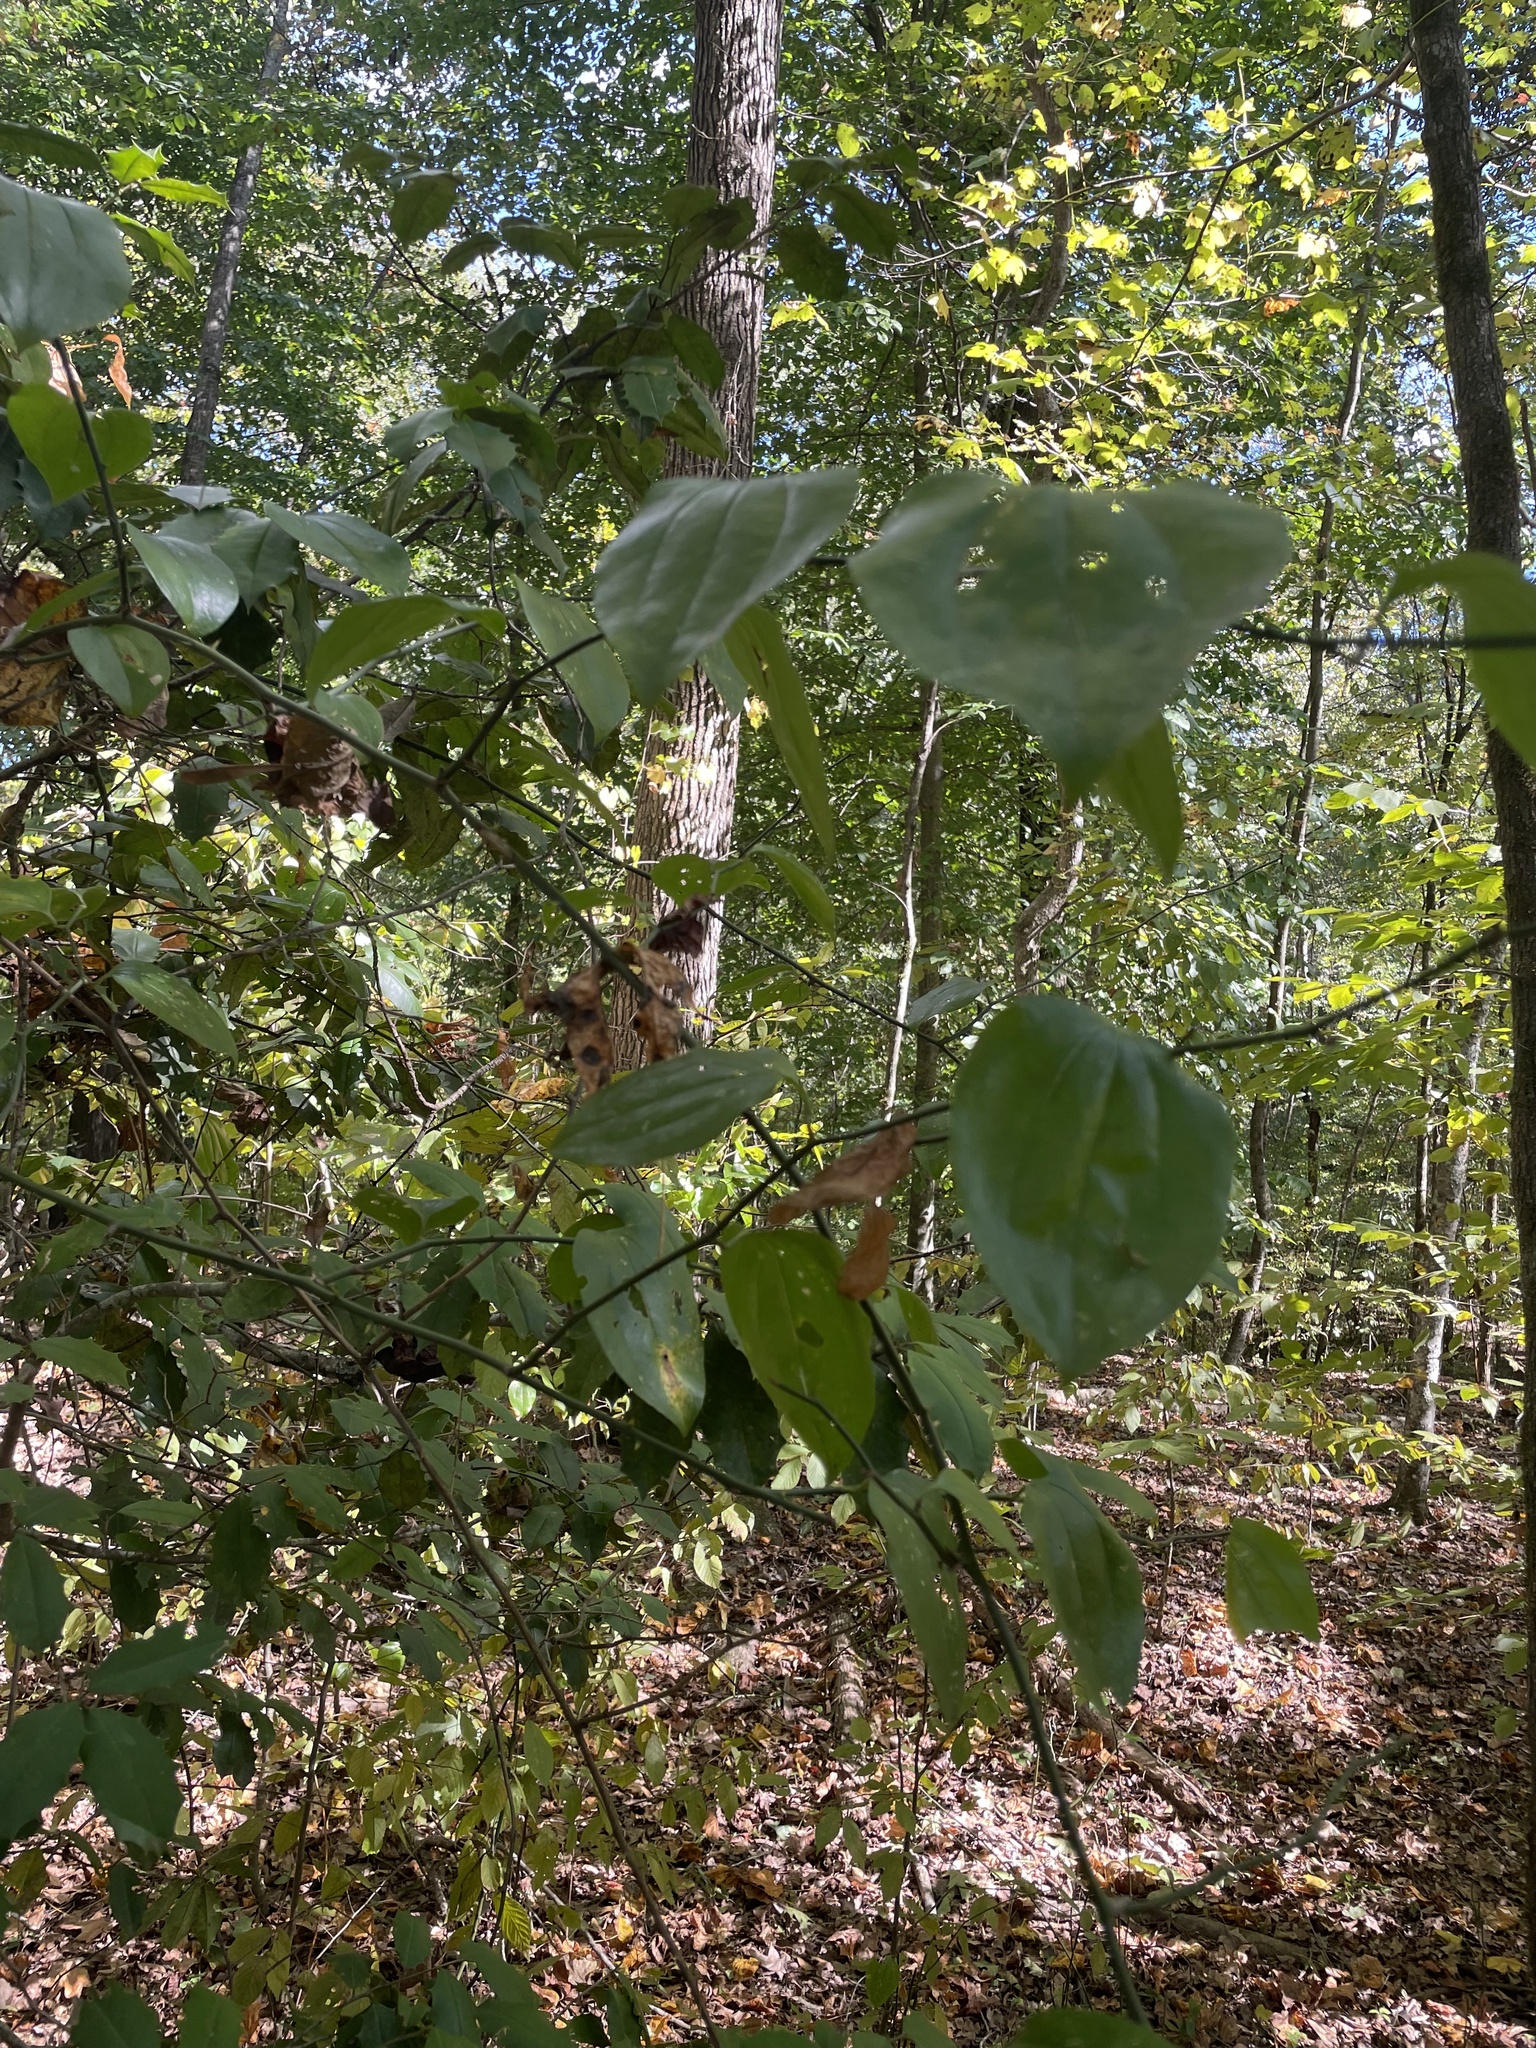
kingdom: Plantae
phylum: Tracheophyta
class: Liliopsida
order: Liliales
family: Smilacaceae
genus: Smilax
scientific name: Smilax rotundifolia
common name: Bullbriar
